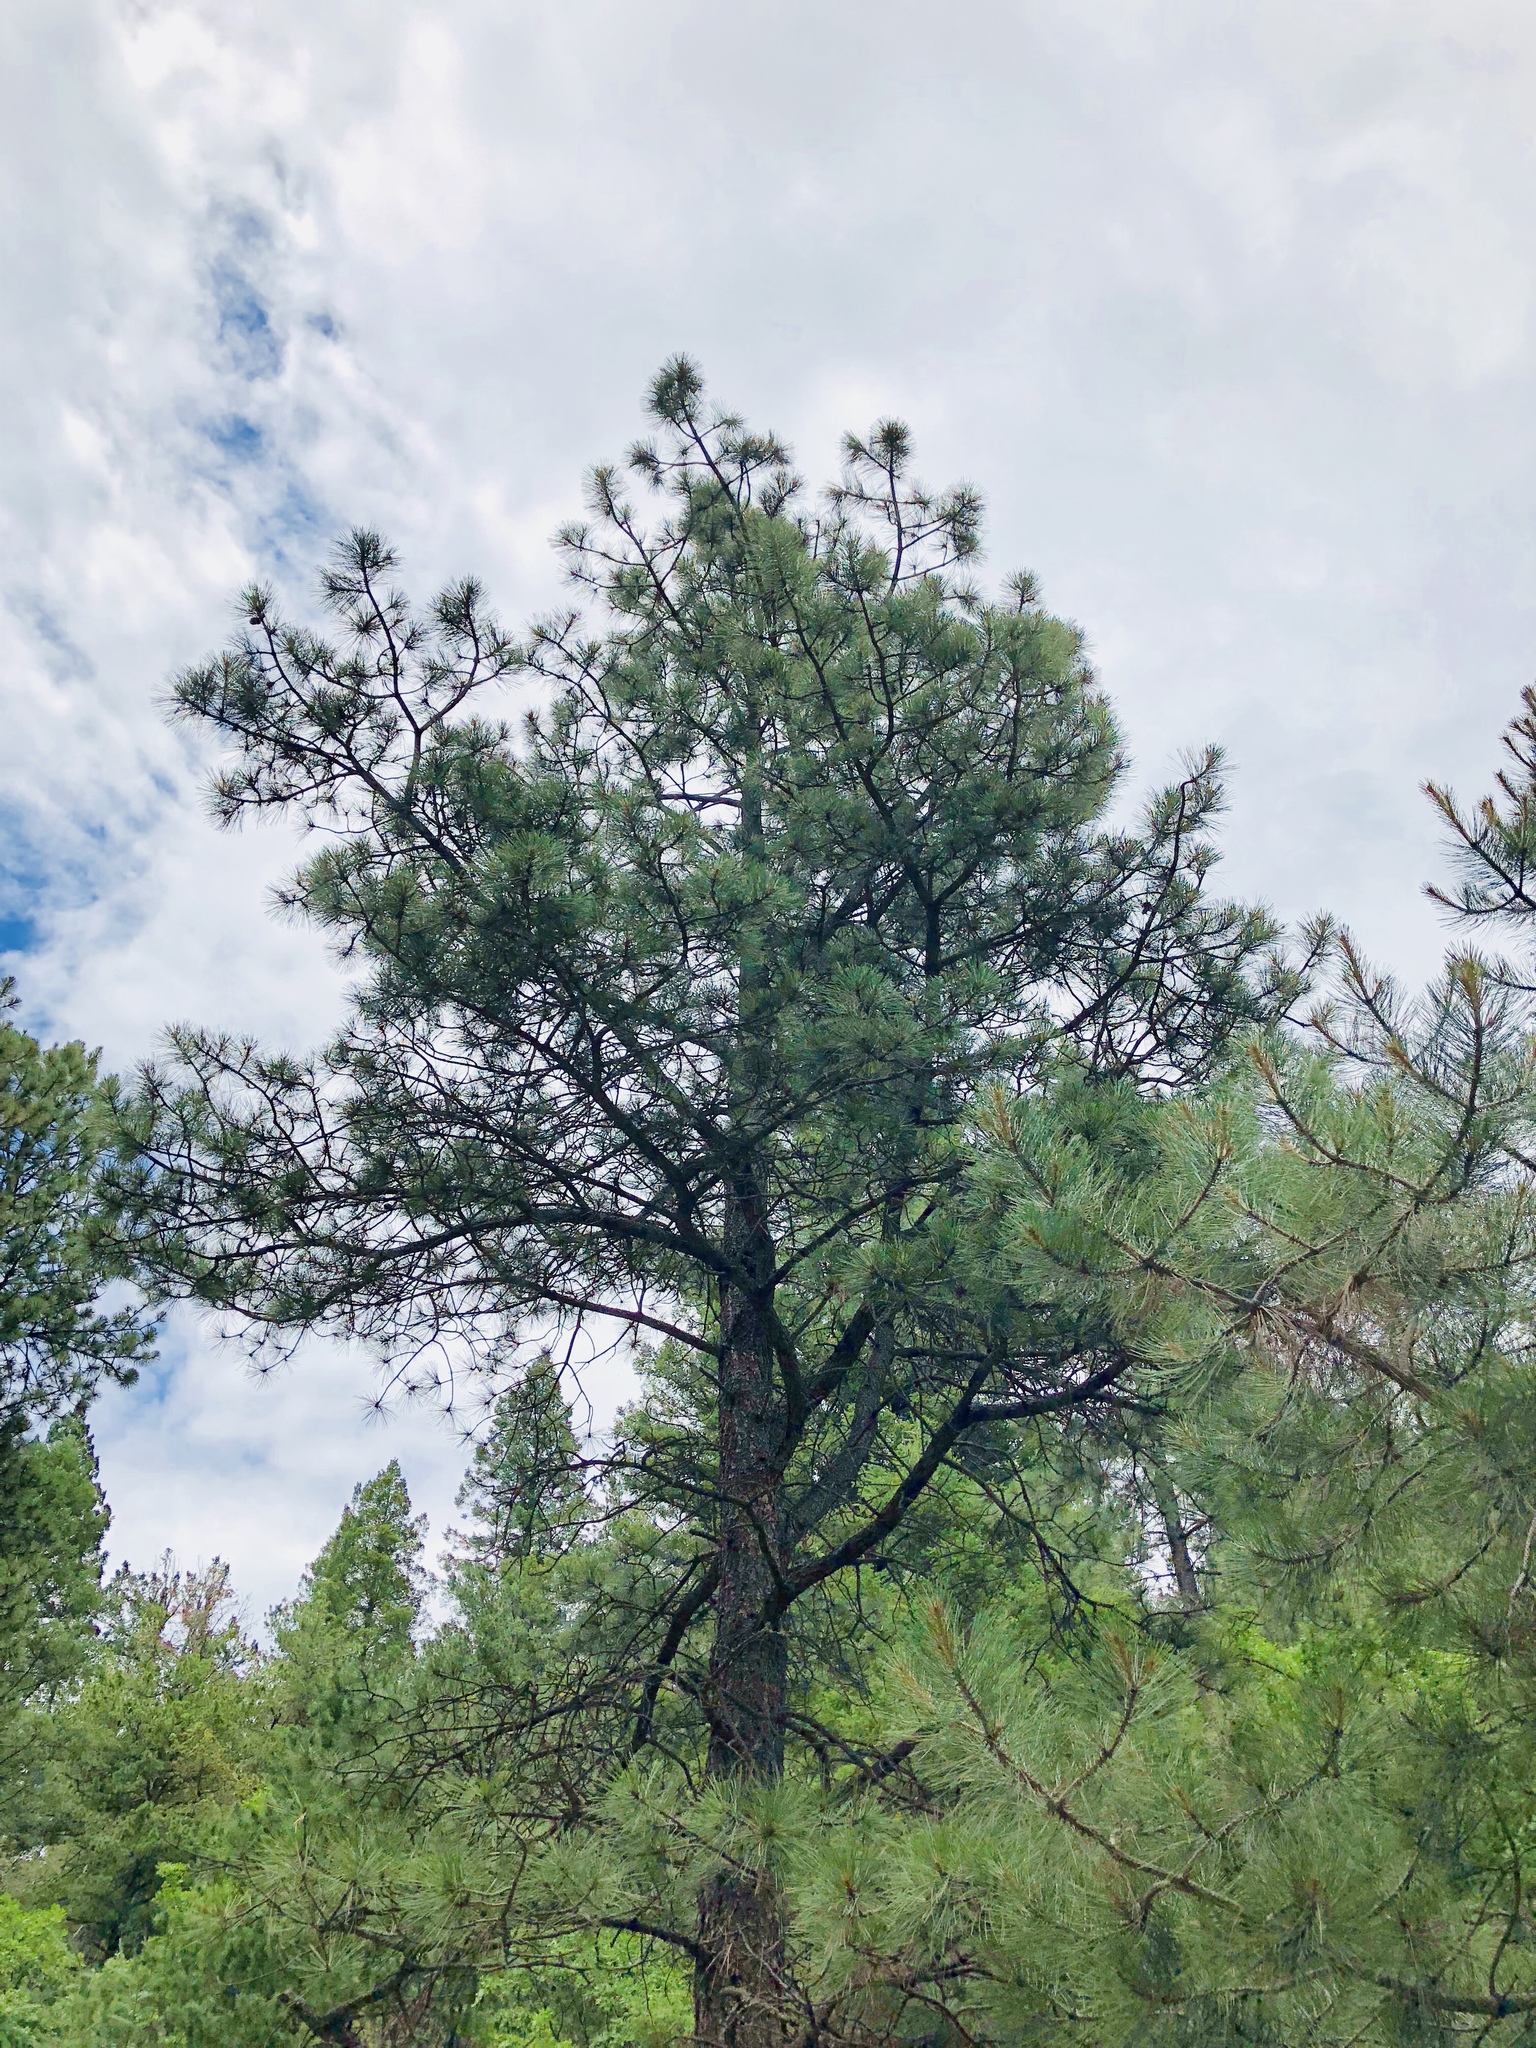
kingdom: Plantae
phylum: Tracheophyta
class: Pinopsida
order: Pinales
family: Pinaceae
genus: Pinus
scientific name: Pinus ponderosa
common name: Western yellow-pine
